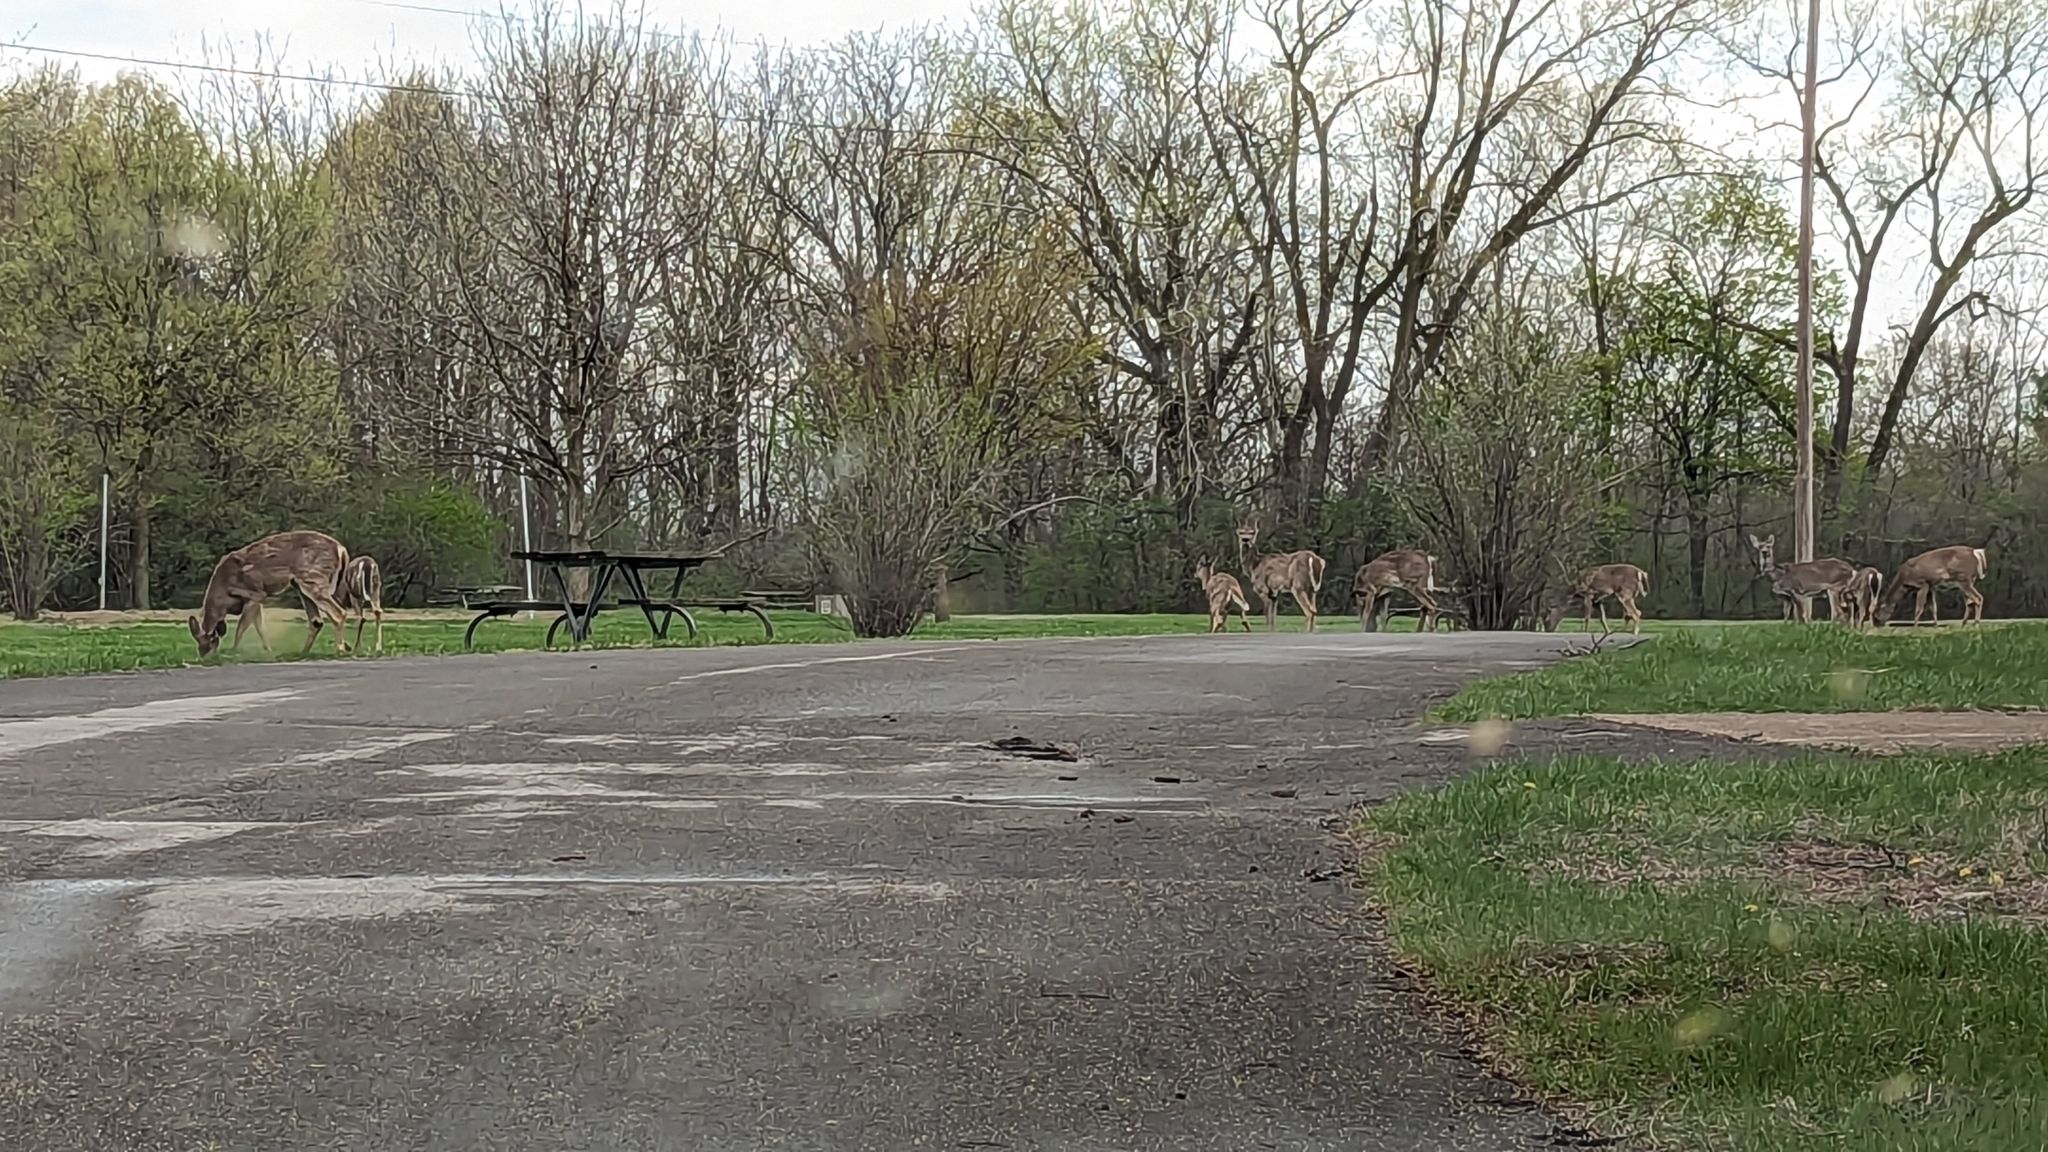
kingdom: Animalia
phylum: Chordata
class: Mammalia
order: Artiodactyla
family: Cervidae
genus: Odocoileus
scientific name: Odocoileus virginianus
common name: White-tailed deer
